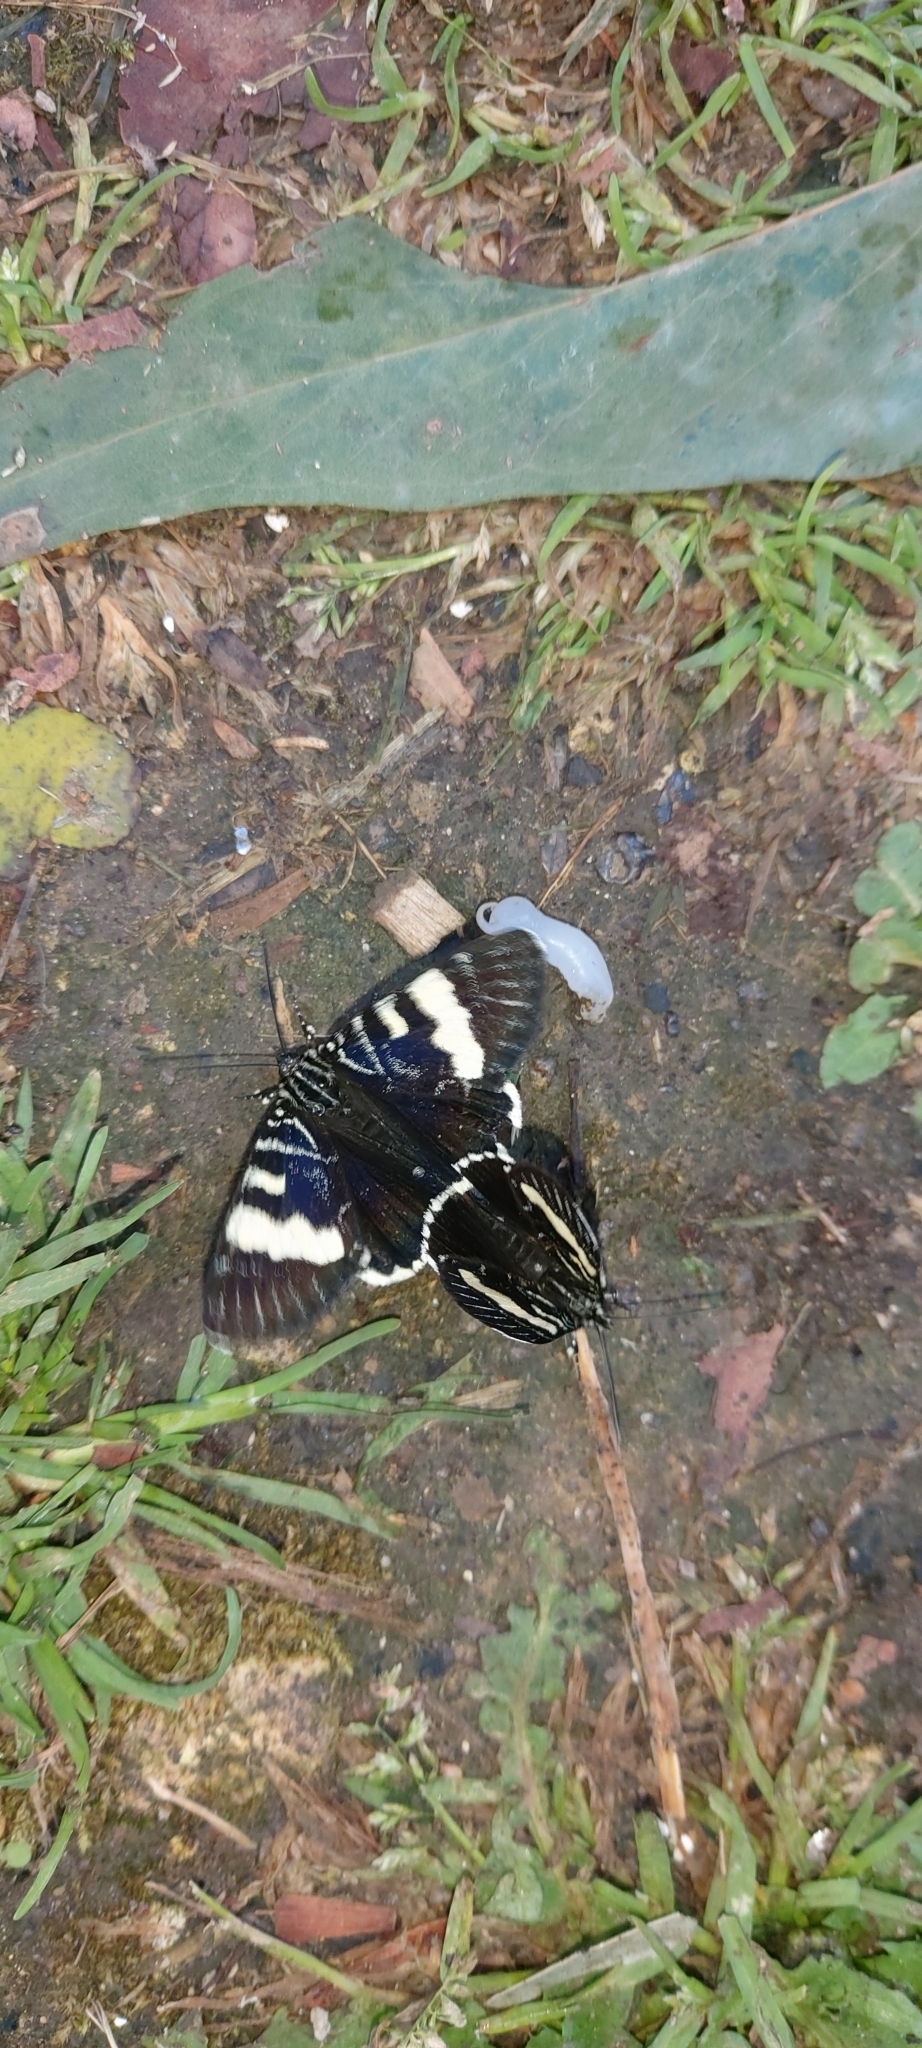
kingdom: Animalia
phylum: Arthropoda
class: Insecta
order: Lepidoptera
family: Noctuidae
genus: Phalaenoides
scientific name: Phalaenoides glycinae
